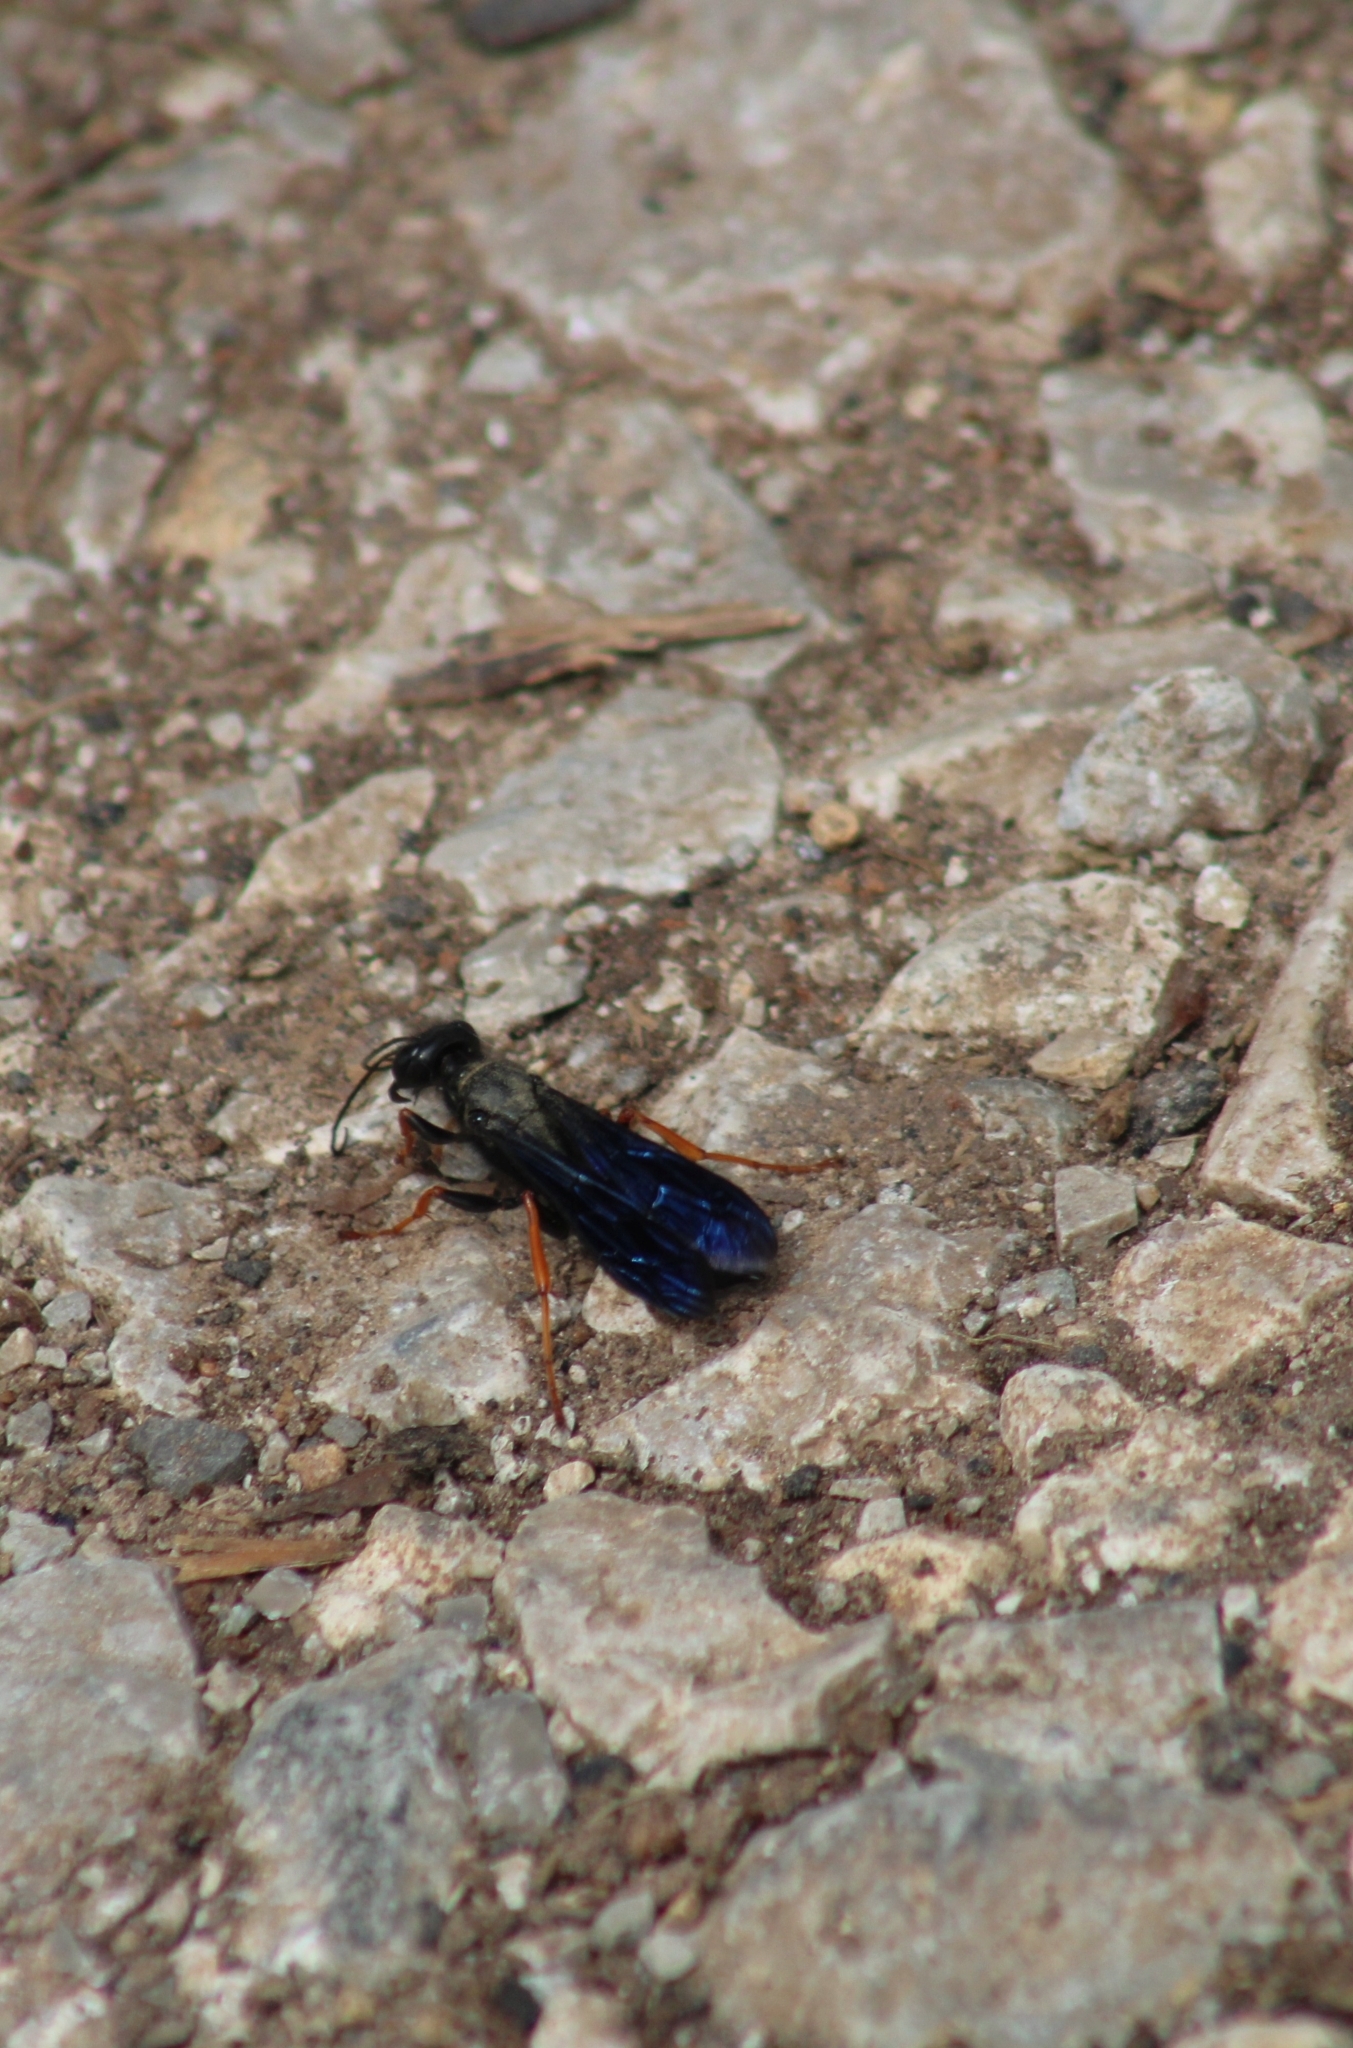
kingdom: Animalia
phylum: Arthropoda
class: Insecta
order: Hymenoptera
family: Sphecidae
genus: Podium
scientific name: Podium luctuosum
